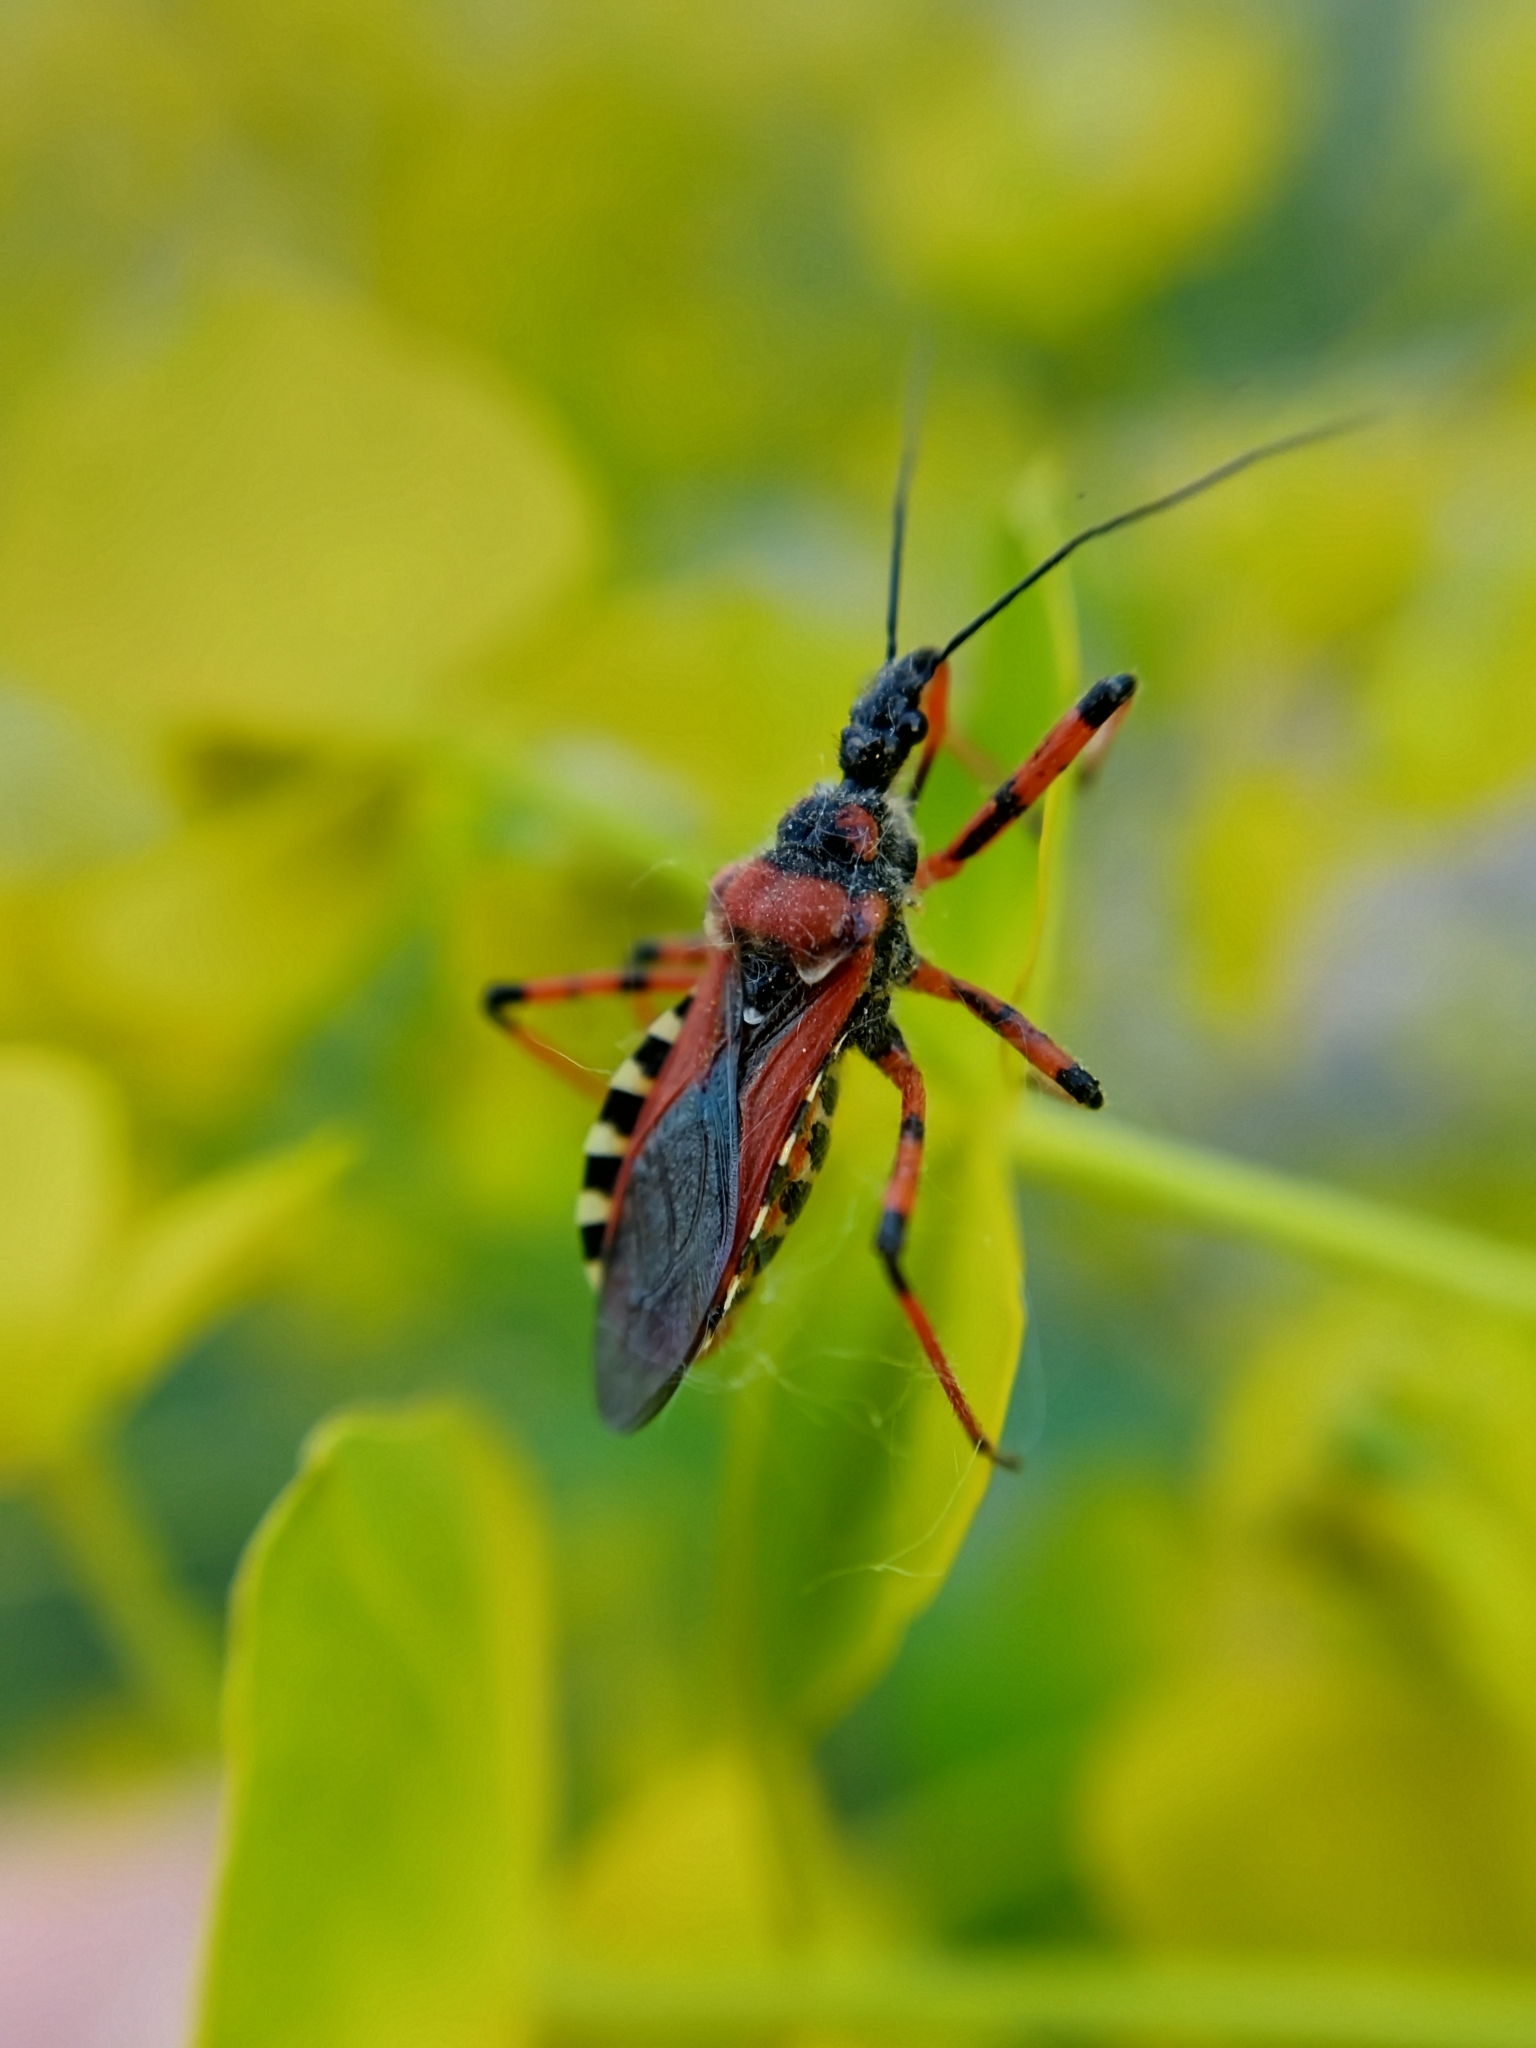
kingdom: Animalia
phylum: Arthropoda
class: Insecta
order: Hemiptera
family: Reduviidae
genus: Rhynocoris
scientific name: Rhynocoris iracundus
